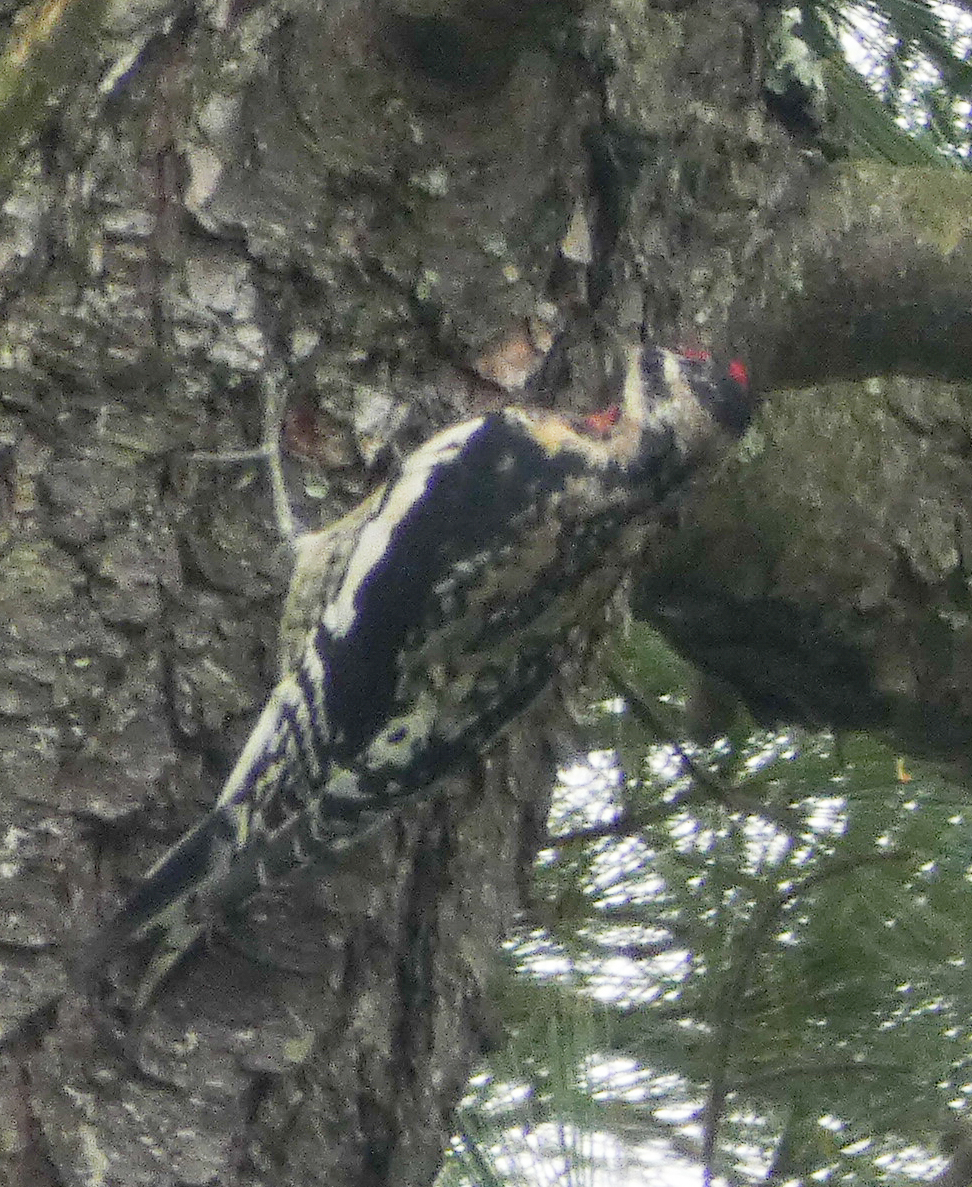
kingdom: Animalia
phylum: Chordata
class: Aves
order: Piciformes
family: Picidae
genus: Sphyrapicus
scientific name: Sphyrapicus varius
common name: Yellow-bellied sapsucker
